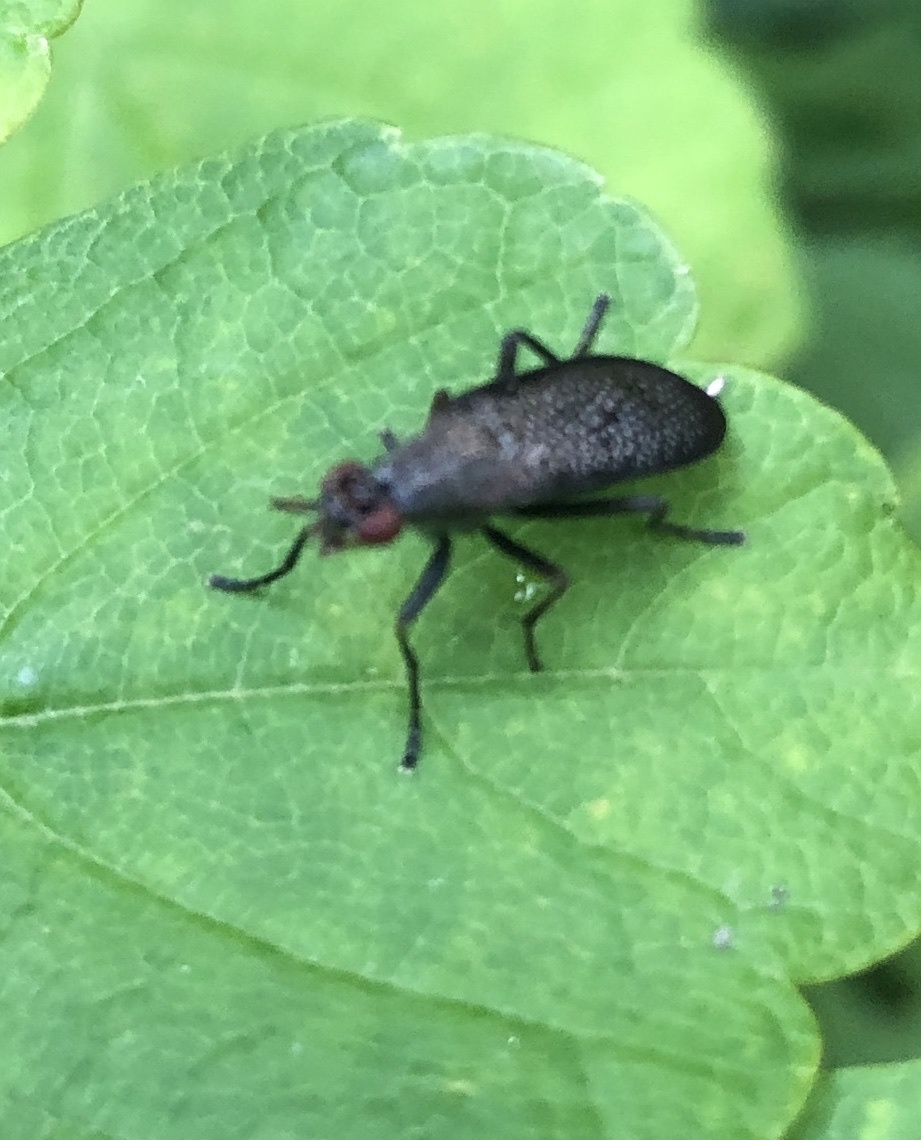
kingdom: Animalia
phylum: Arthropoda
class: Insecta
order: Diptera
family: Sciomyzidae
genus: Coremacera
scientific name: Coremacera marginata
